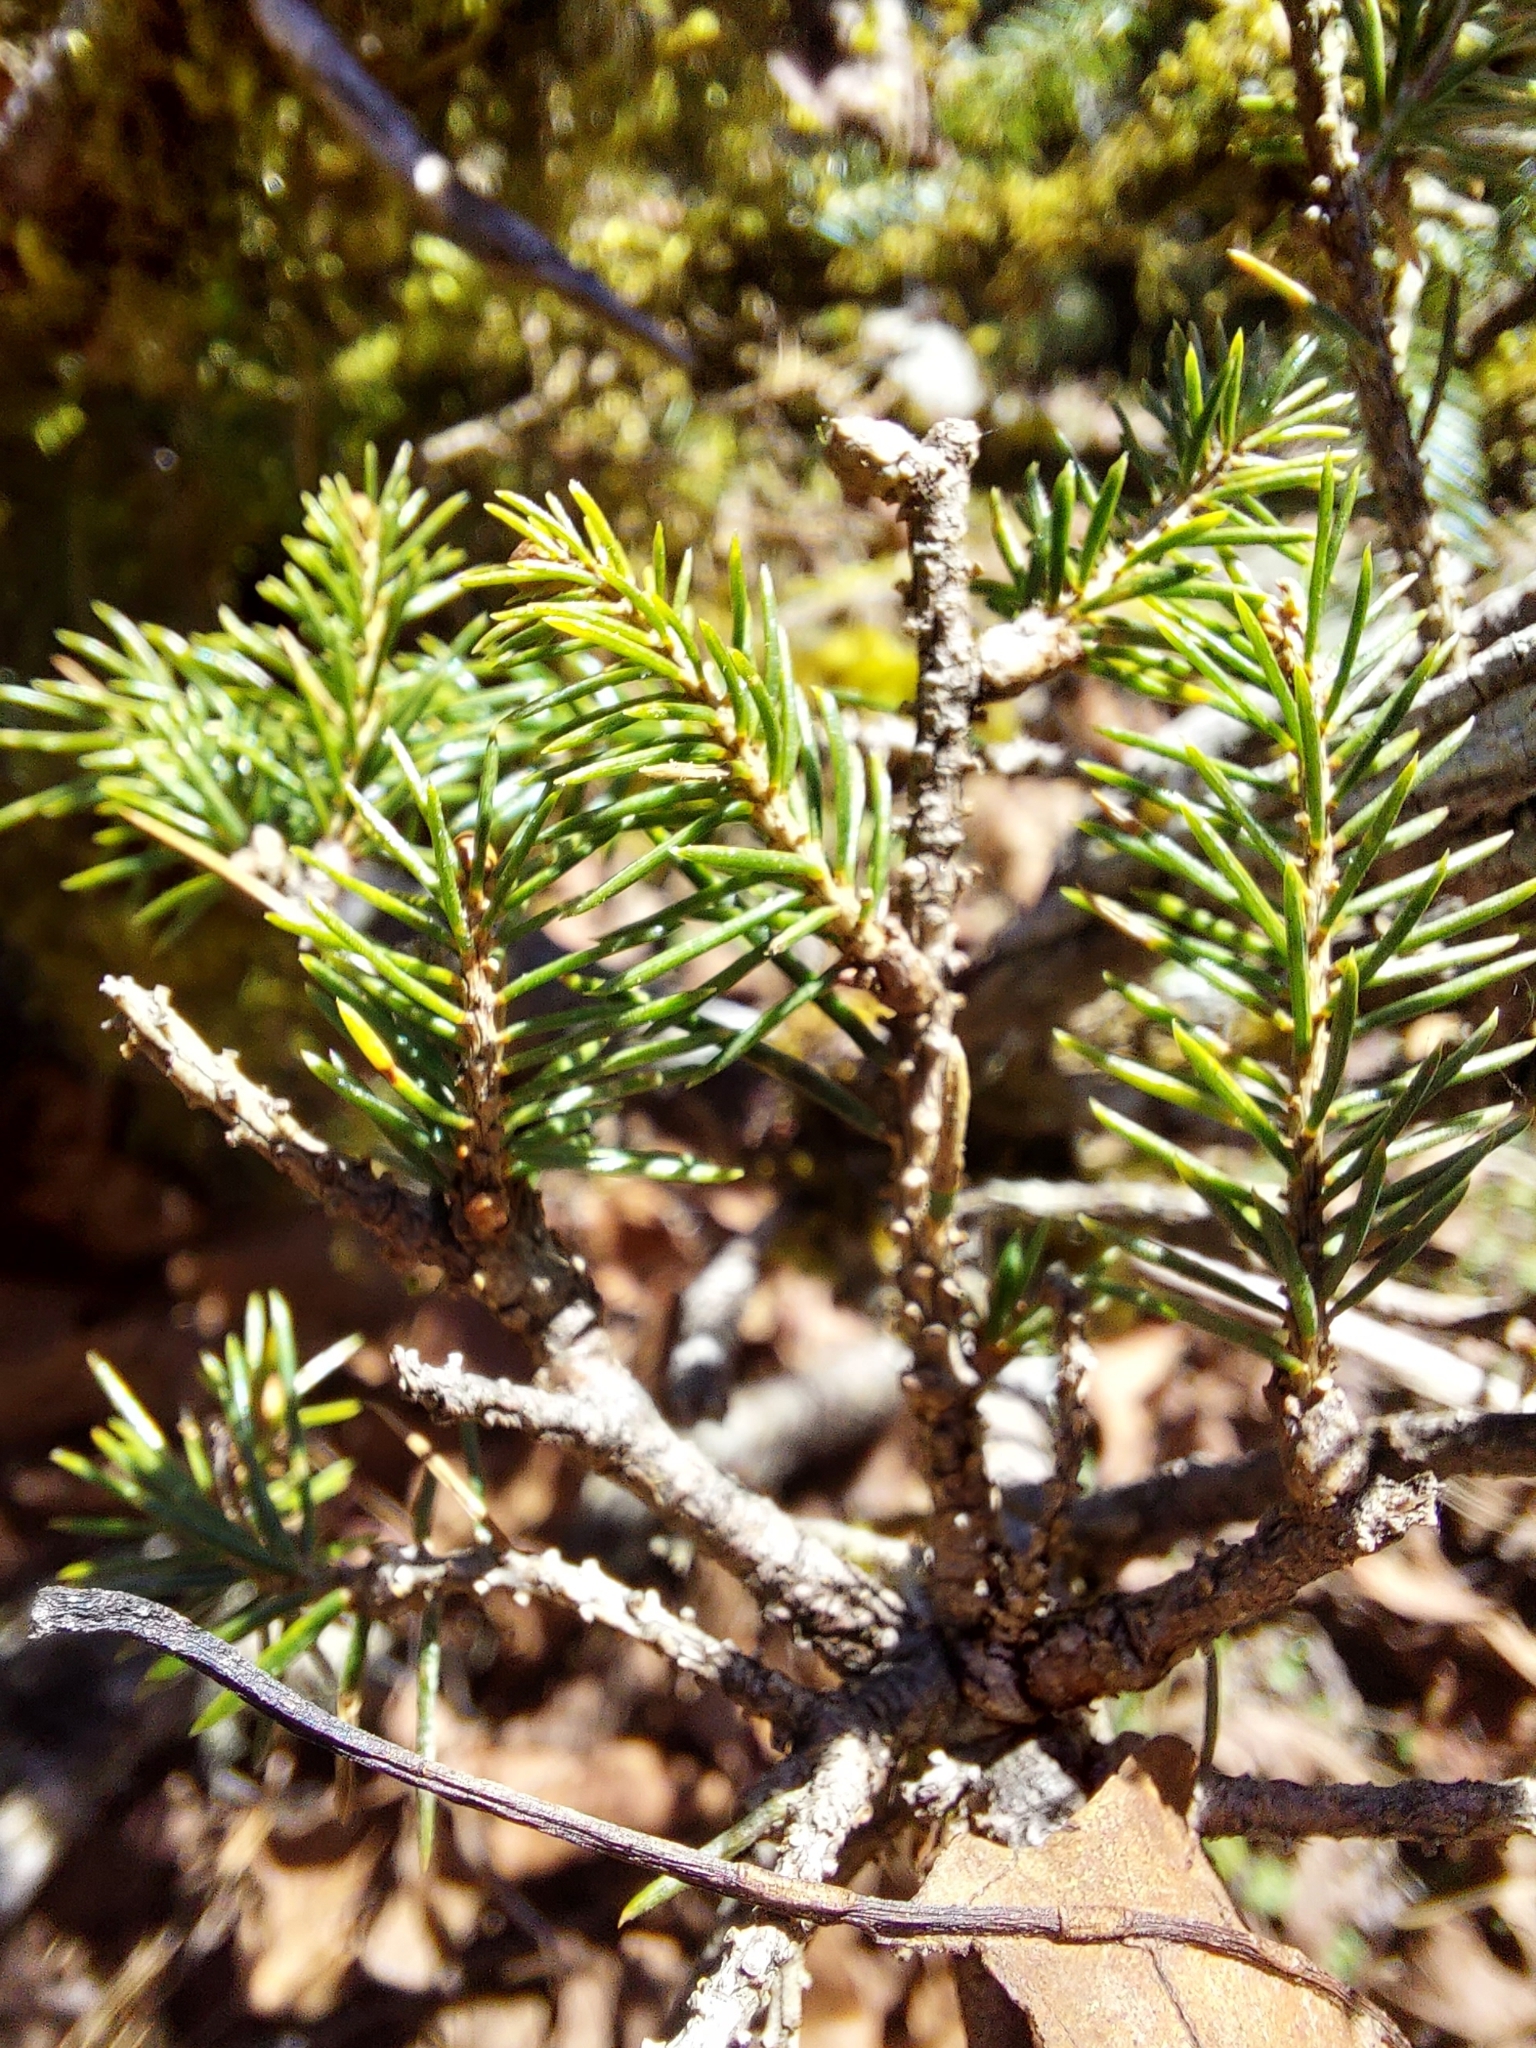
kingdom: Plantae
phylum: Tracheophyta
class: Pinopsida
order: Pinales
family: Pinaceae
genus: Picea
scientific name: Picea morrisonicola
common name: Mount morrison spruce
